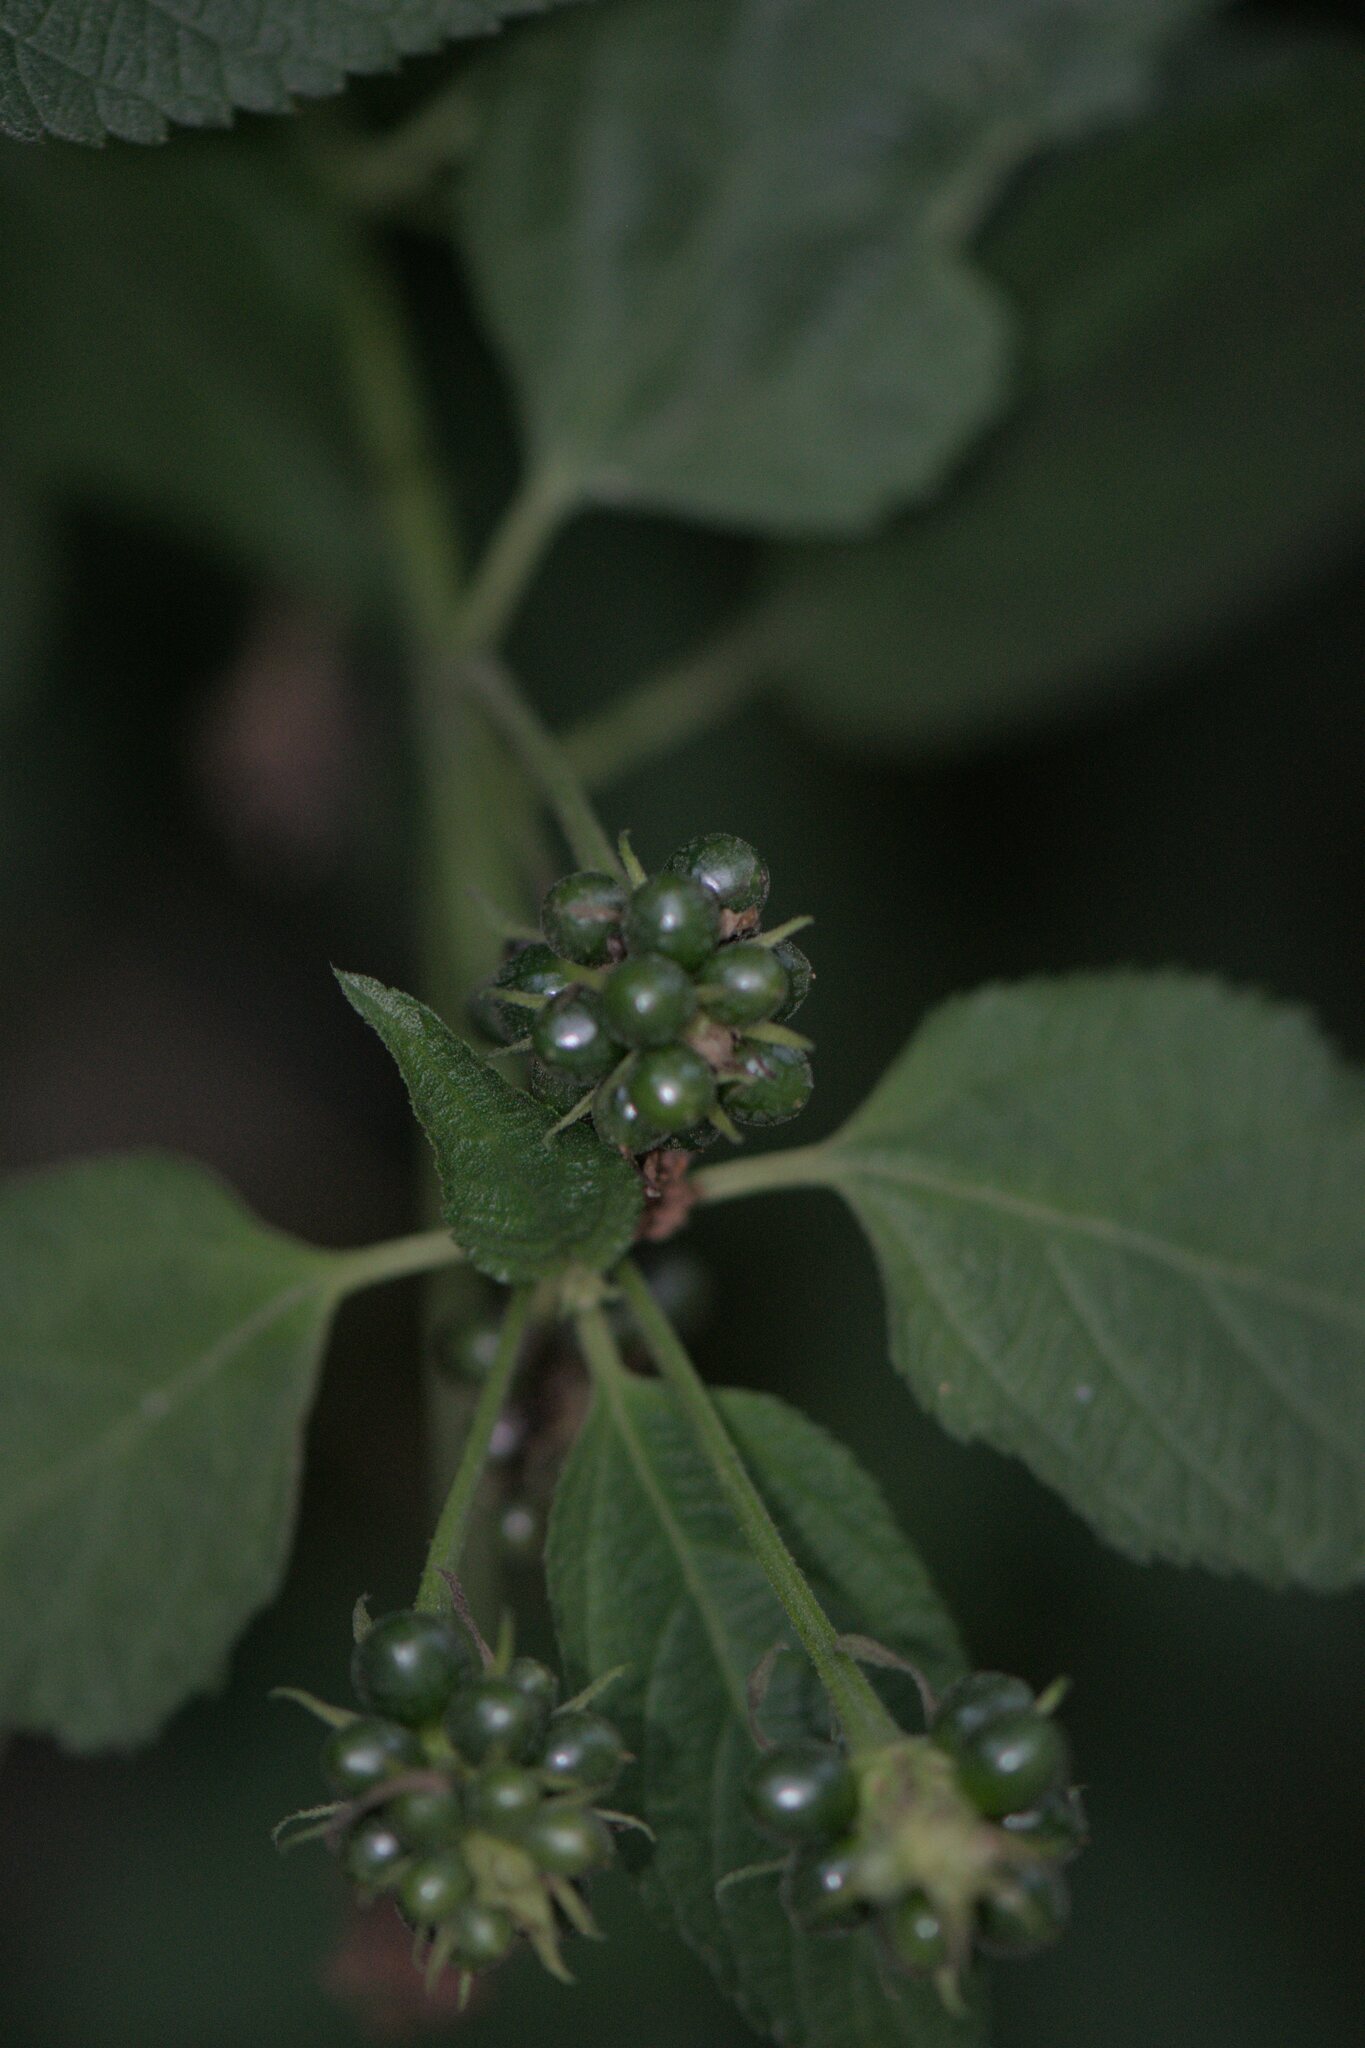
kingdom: Plantae
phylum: Tracheophyta
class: Magnoliopsida
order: Lamiales
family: Verbenaceae
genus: Lantana
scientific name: Lantana camara
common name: Lantana
